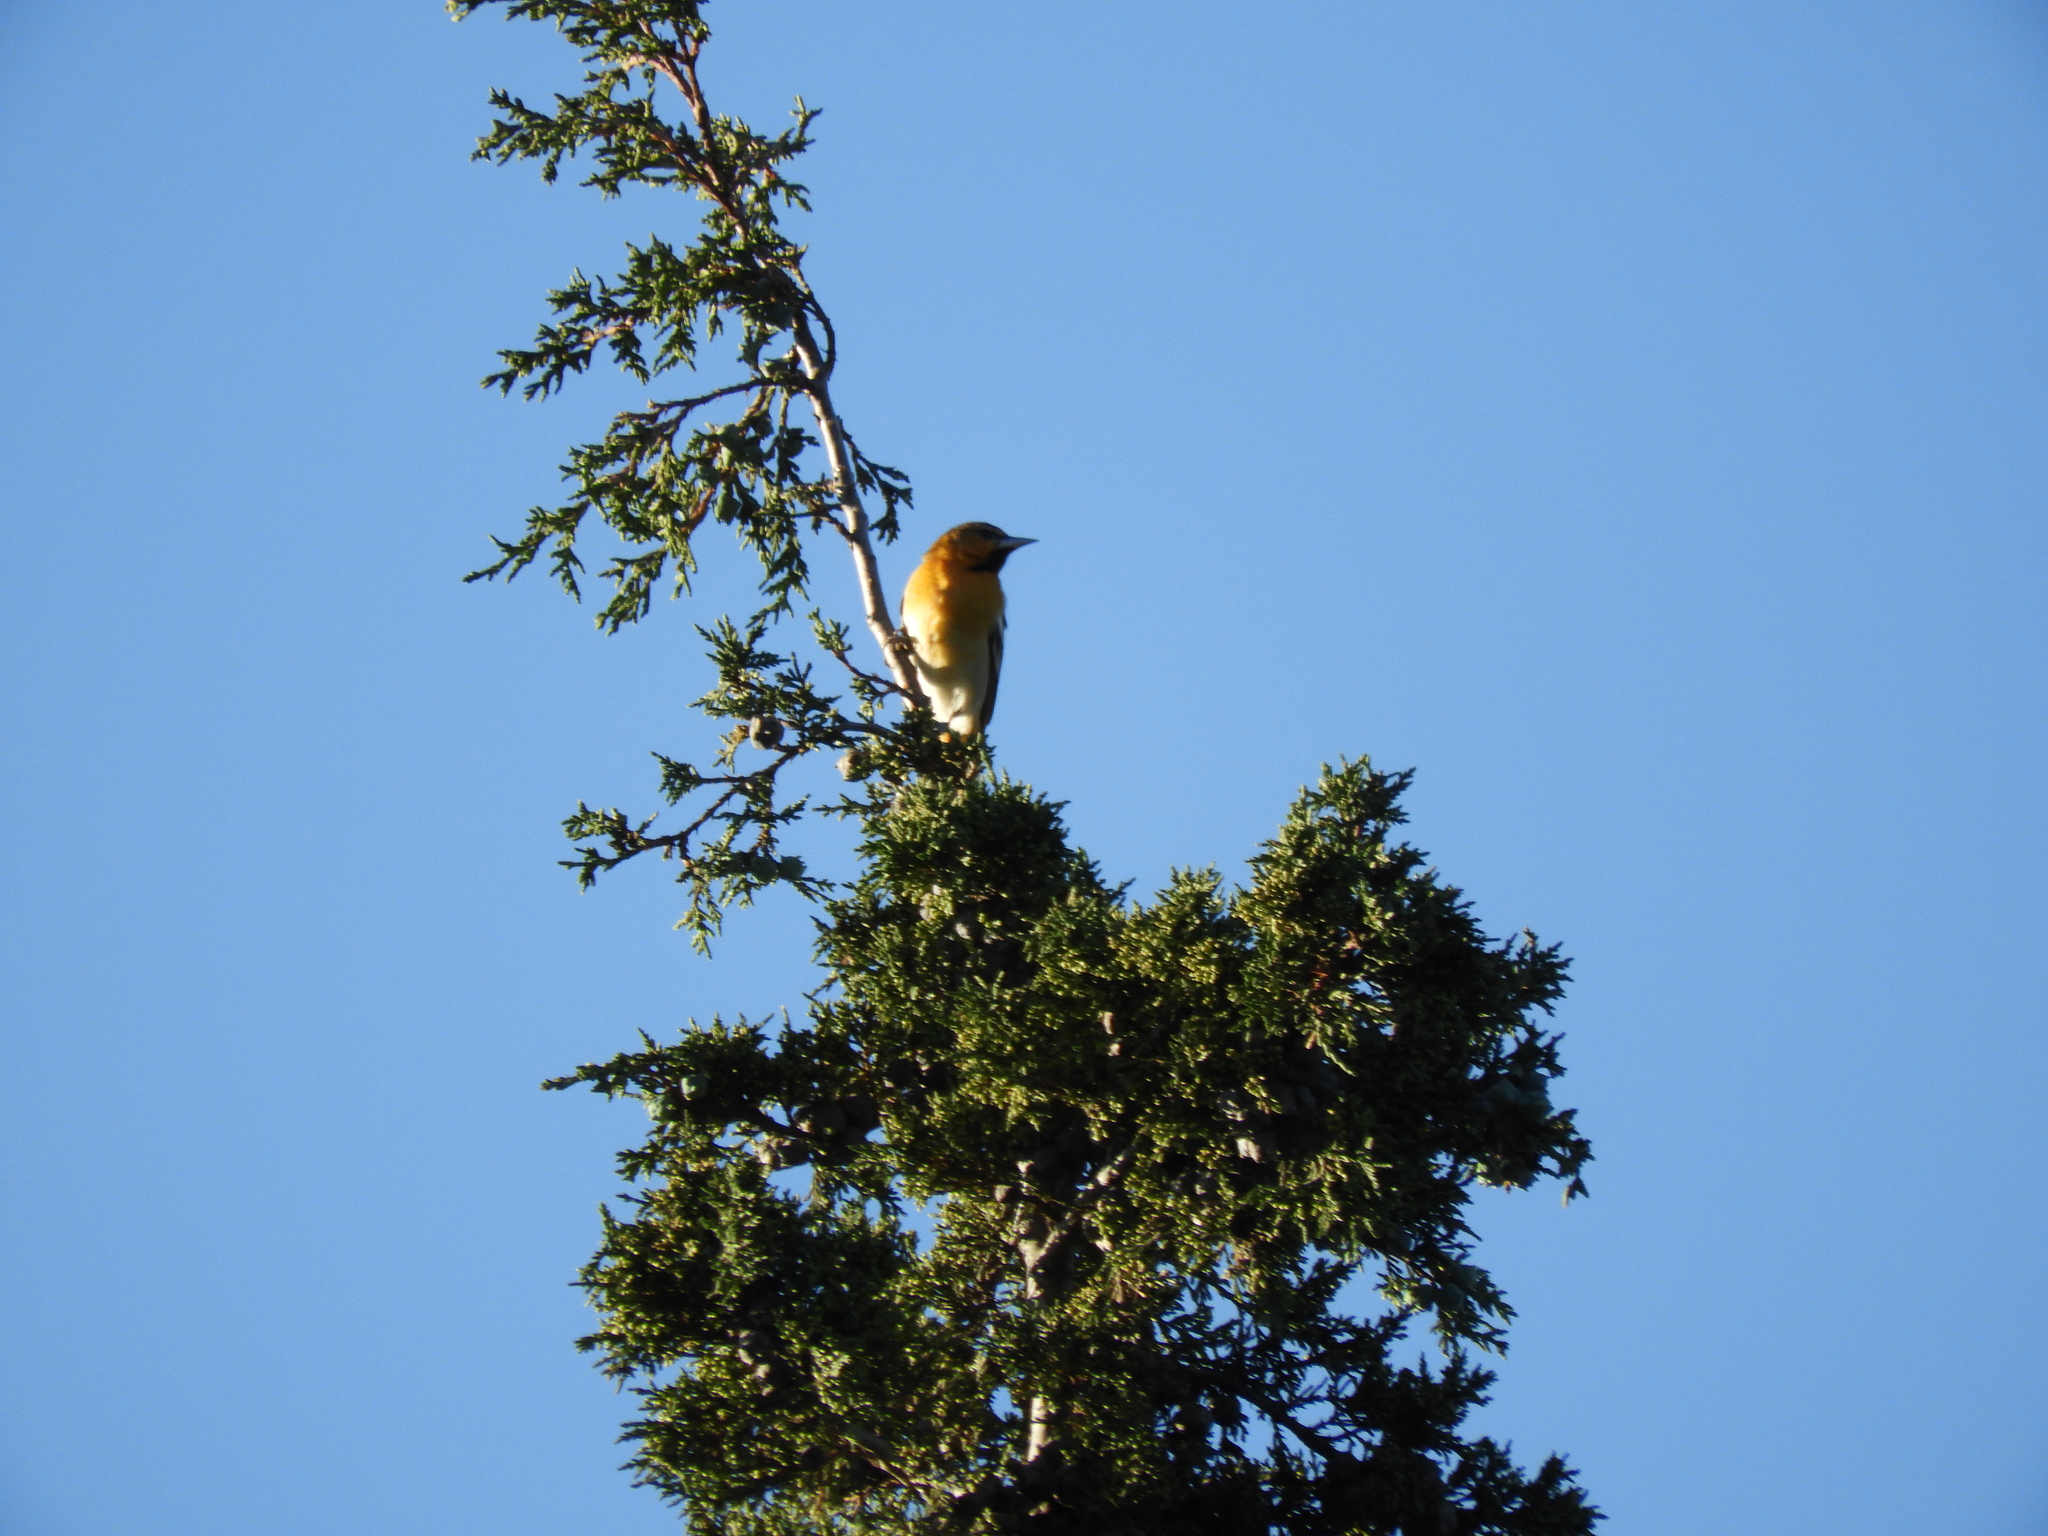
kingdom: Animalia
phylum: Chordata
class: Aves
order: Passeriformes
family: Icteridae
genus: Icterus
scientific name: Icterus bullockii
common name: Bullock's oriole
